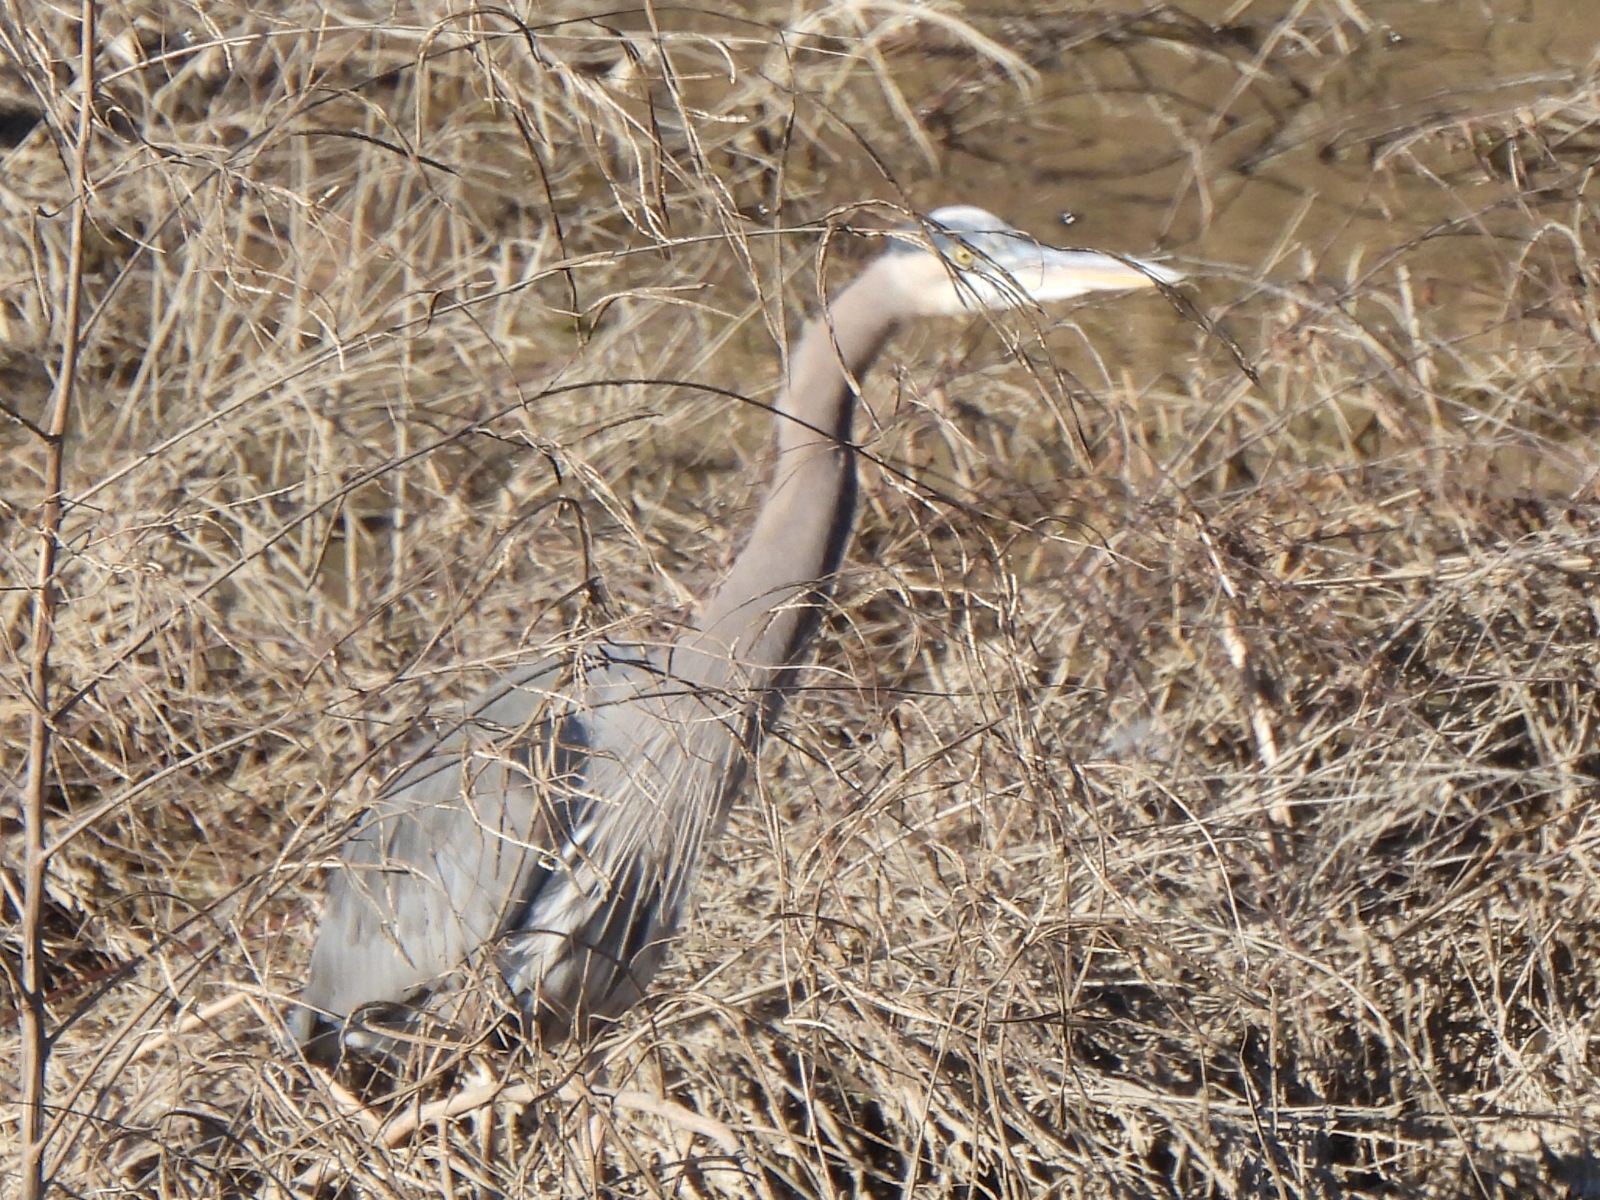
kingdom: Animalia
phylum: Chordata
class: Aves
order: Pelecaniformes
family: Ardeidae
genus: Ardea
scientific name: Ardea herodias
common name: Great blue heron
